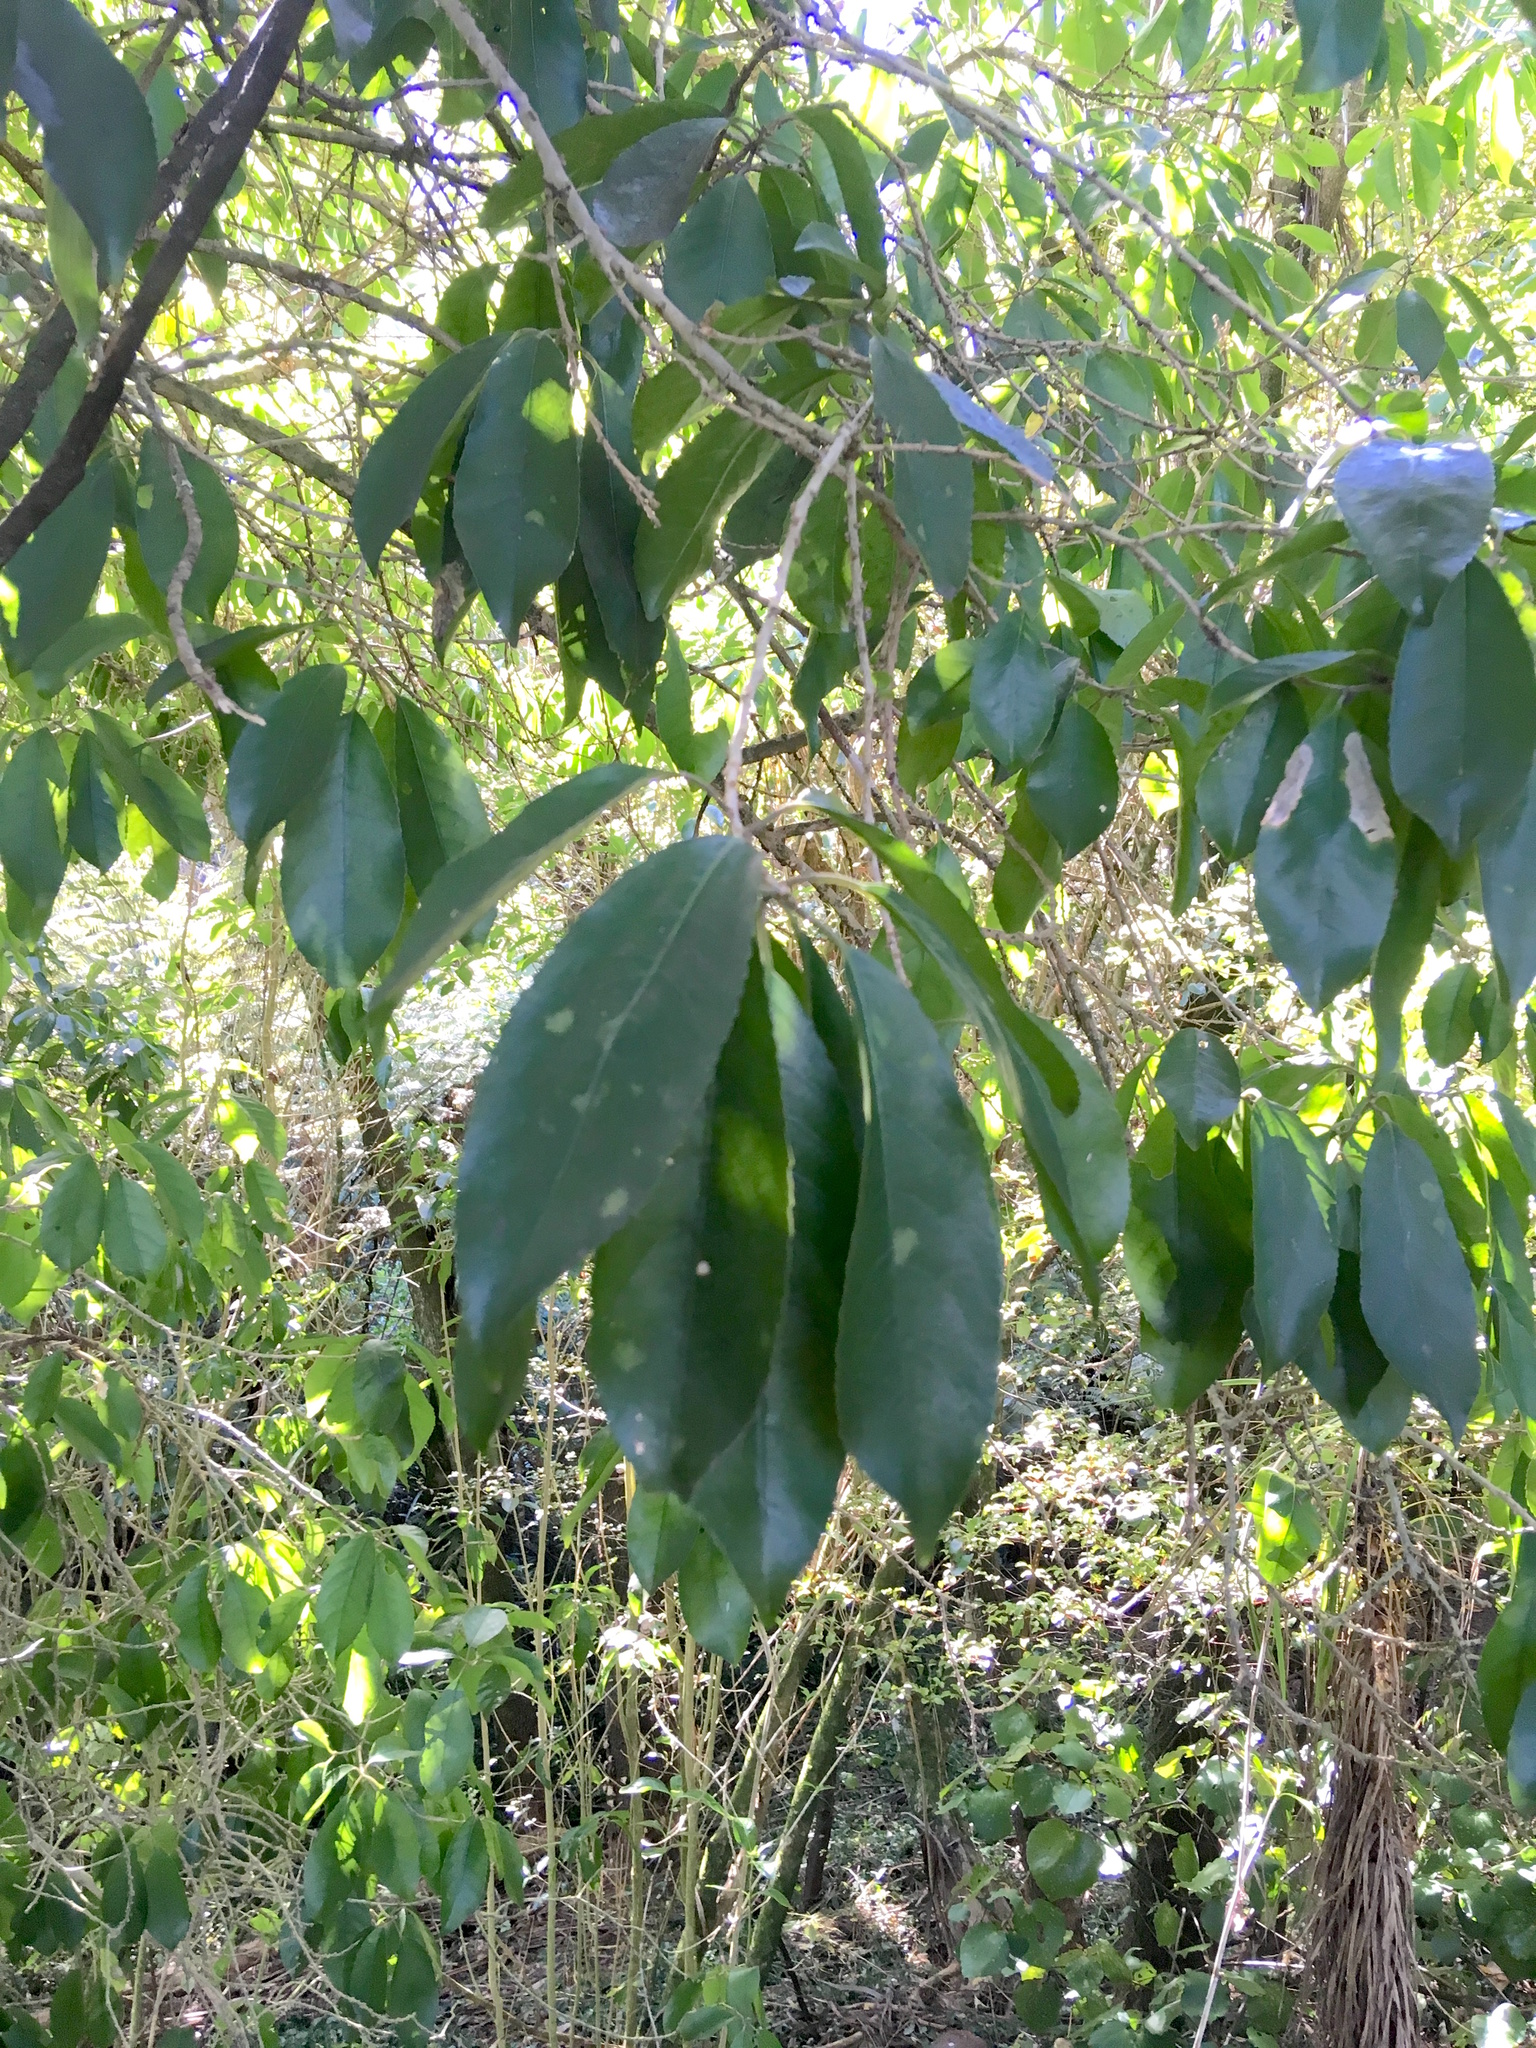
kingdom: Plantae
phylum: Tracheophyta
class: Magnoliopsida
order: Malpighiales
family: Violaceae
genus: Melicytus
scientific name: Melicytus ramiflorus
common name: Mahoe
